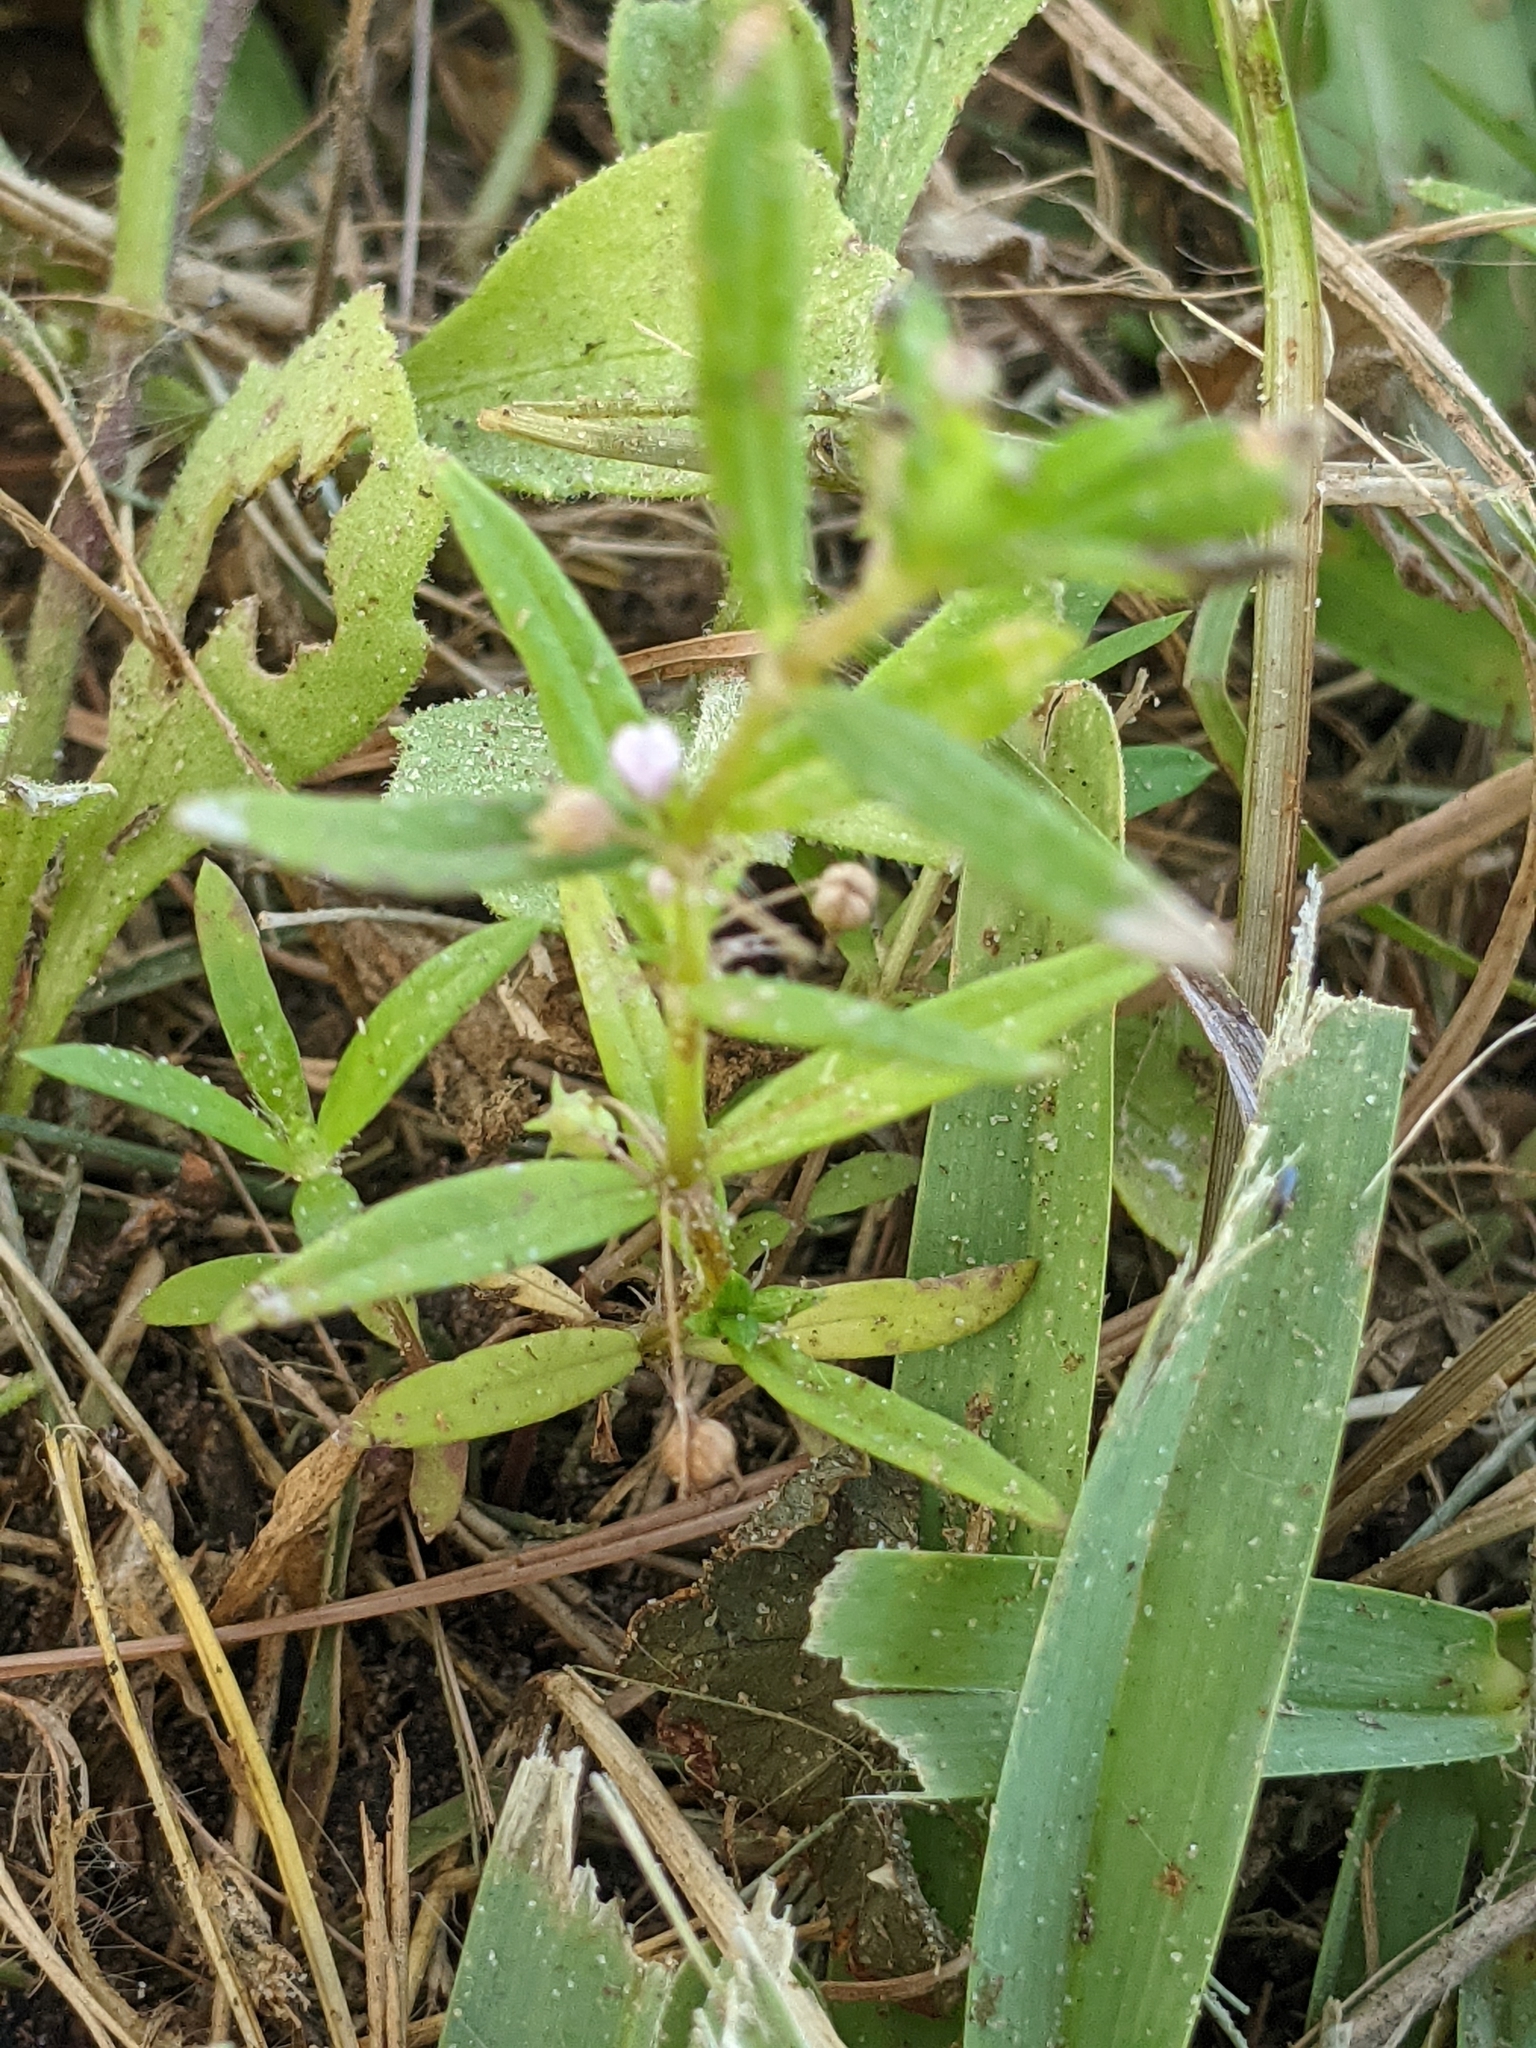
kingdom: Plantae
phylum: Tracheophyta
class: Magnoliopsida
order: Gentianales
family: Rubiaceae
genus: Oldenlandia
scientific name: Oldenlandia corymbosa
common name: Flat-top mille graines
